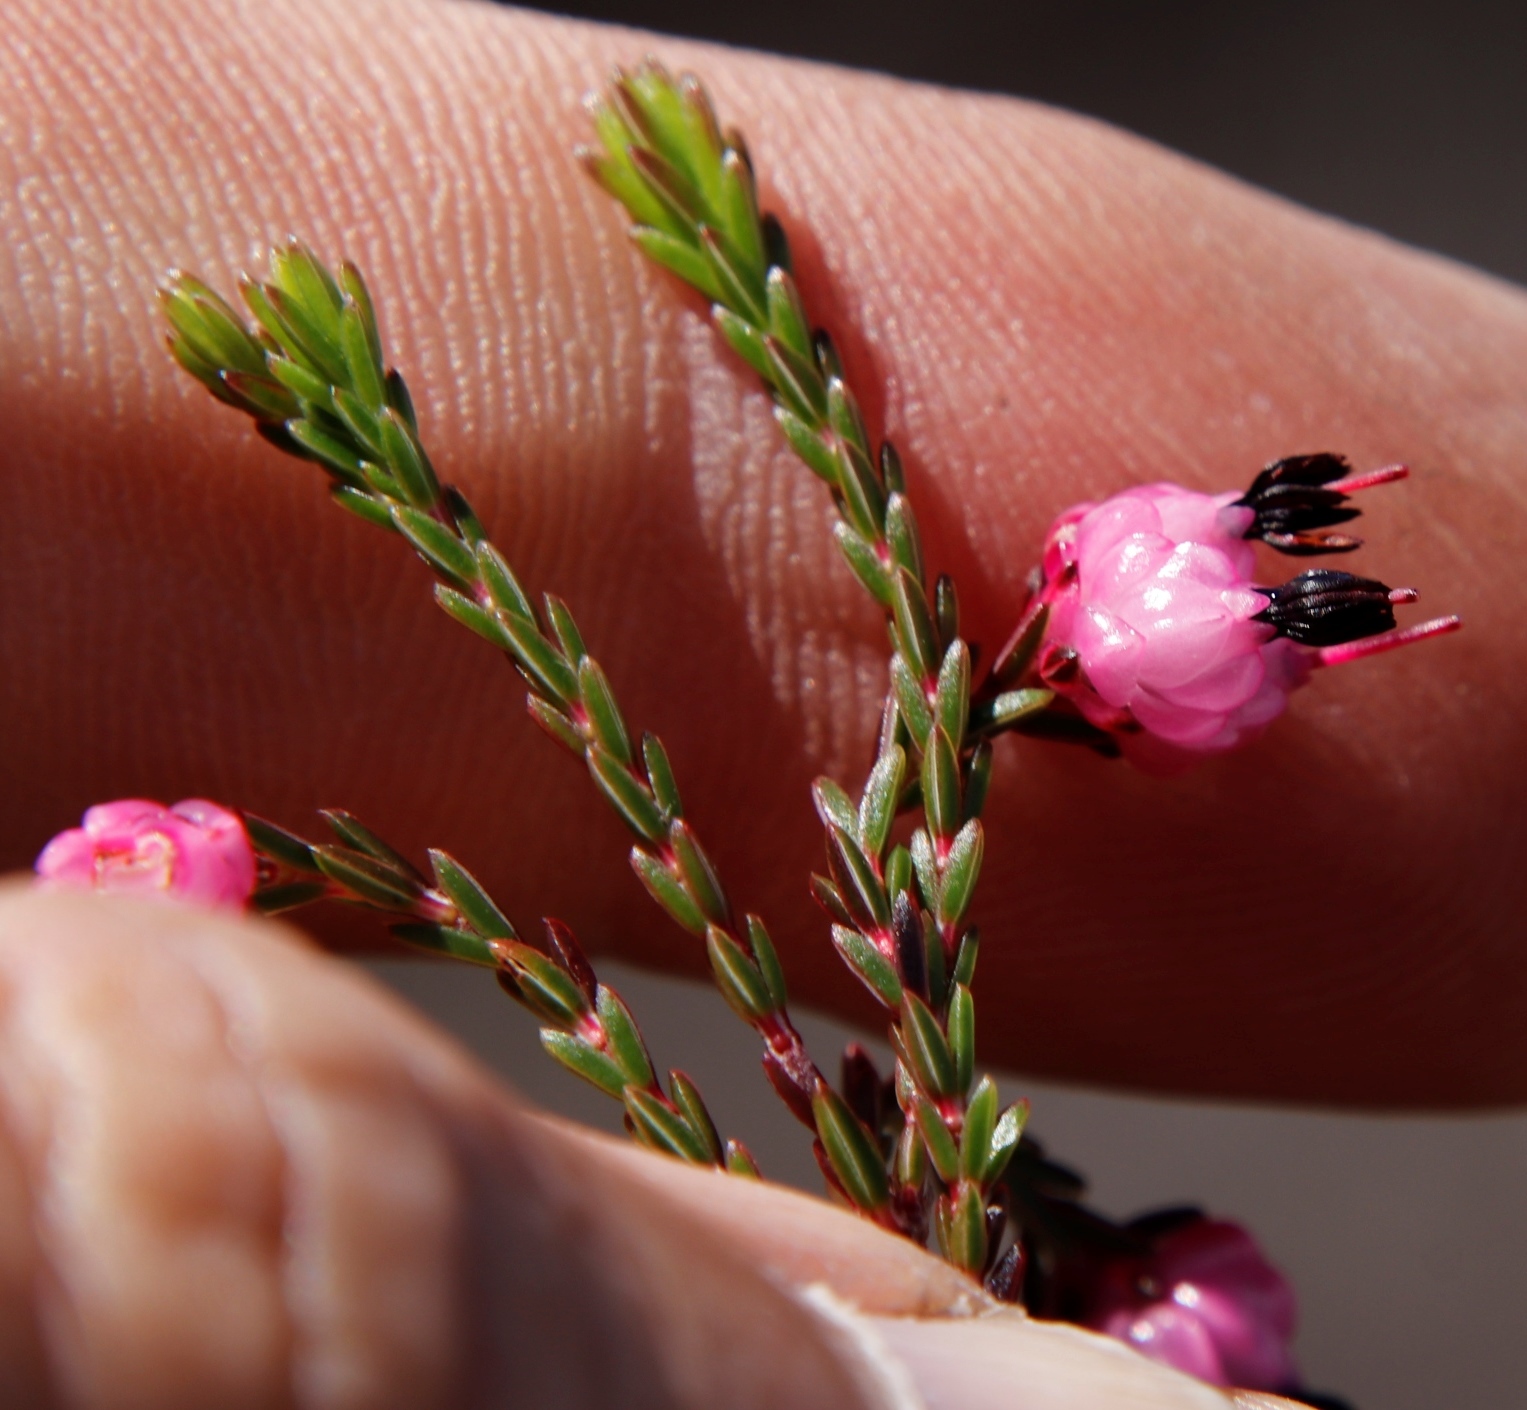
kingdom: Plantae
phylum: Tracheophyta
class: Magnoliopsida
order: Ericales
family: Ericaceae
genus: Erica
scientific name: Erica spumosa
